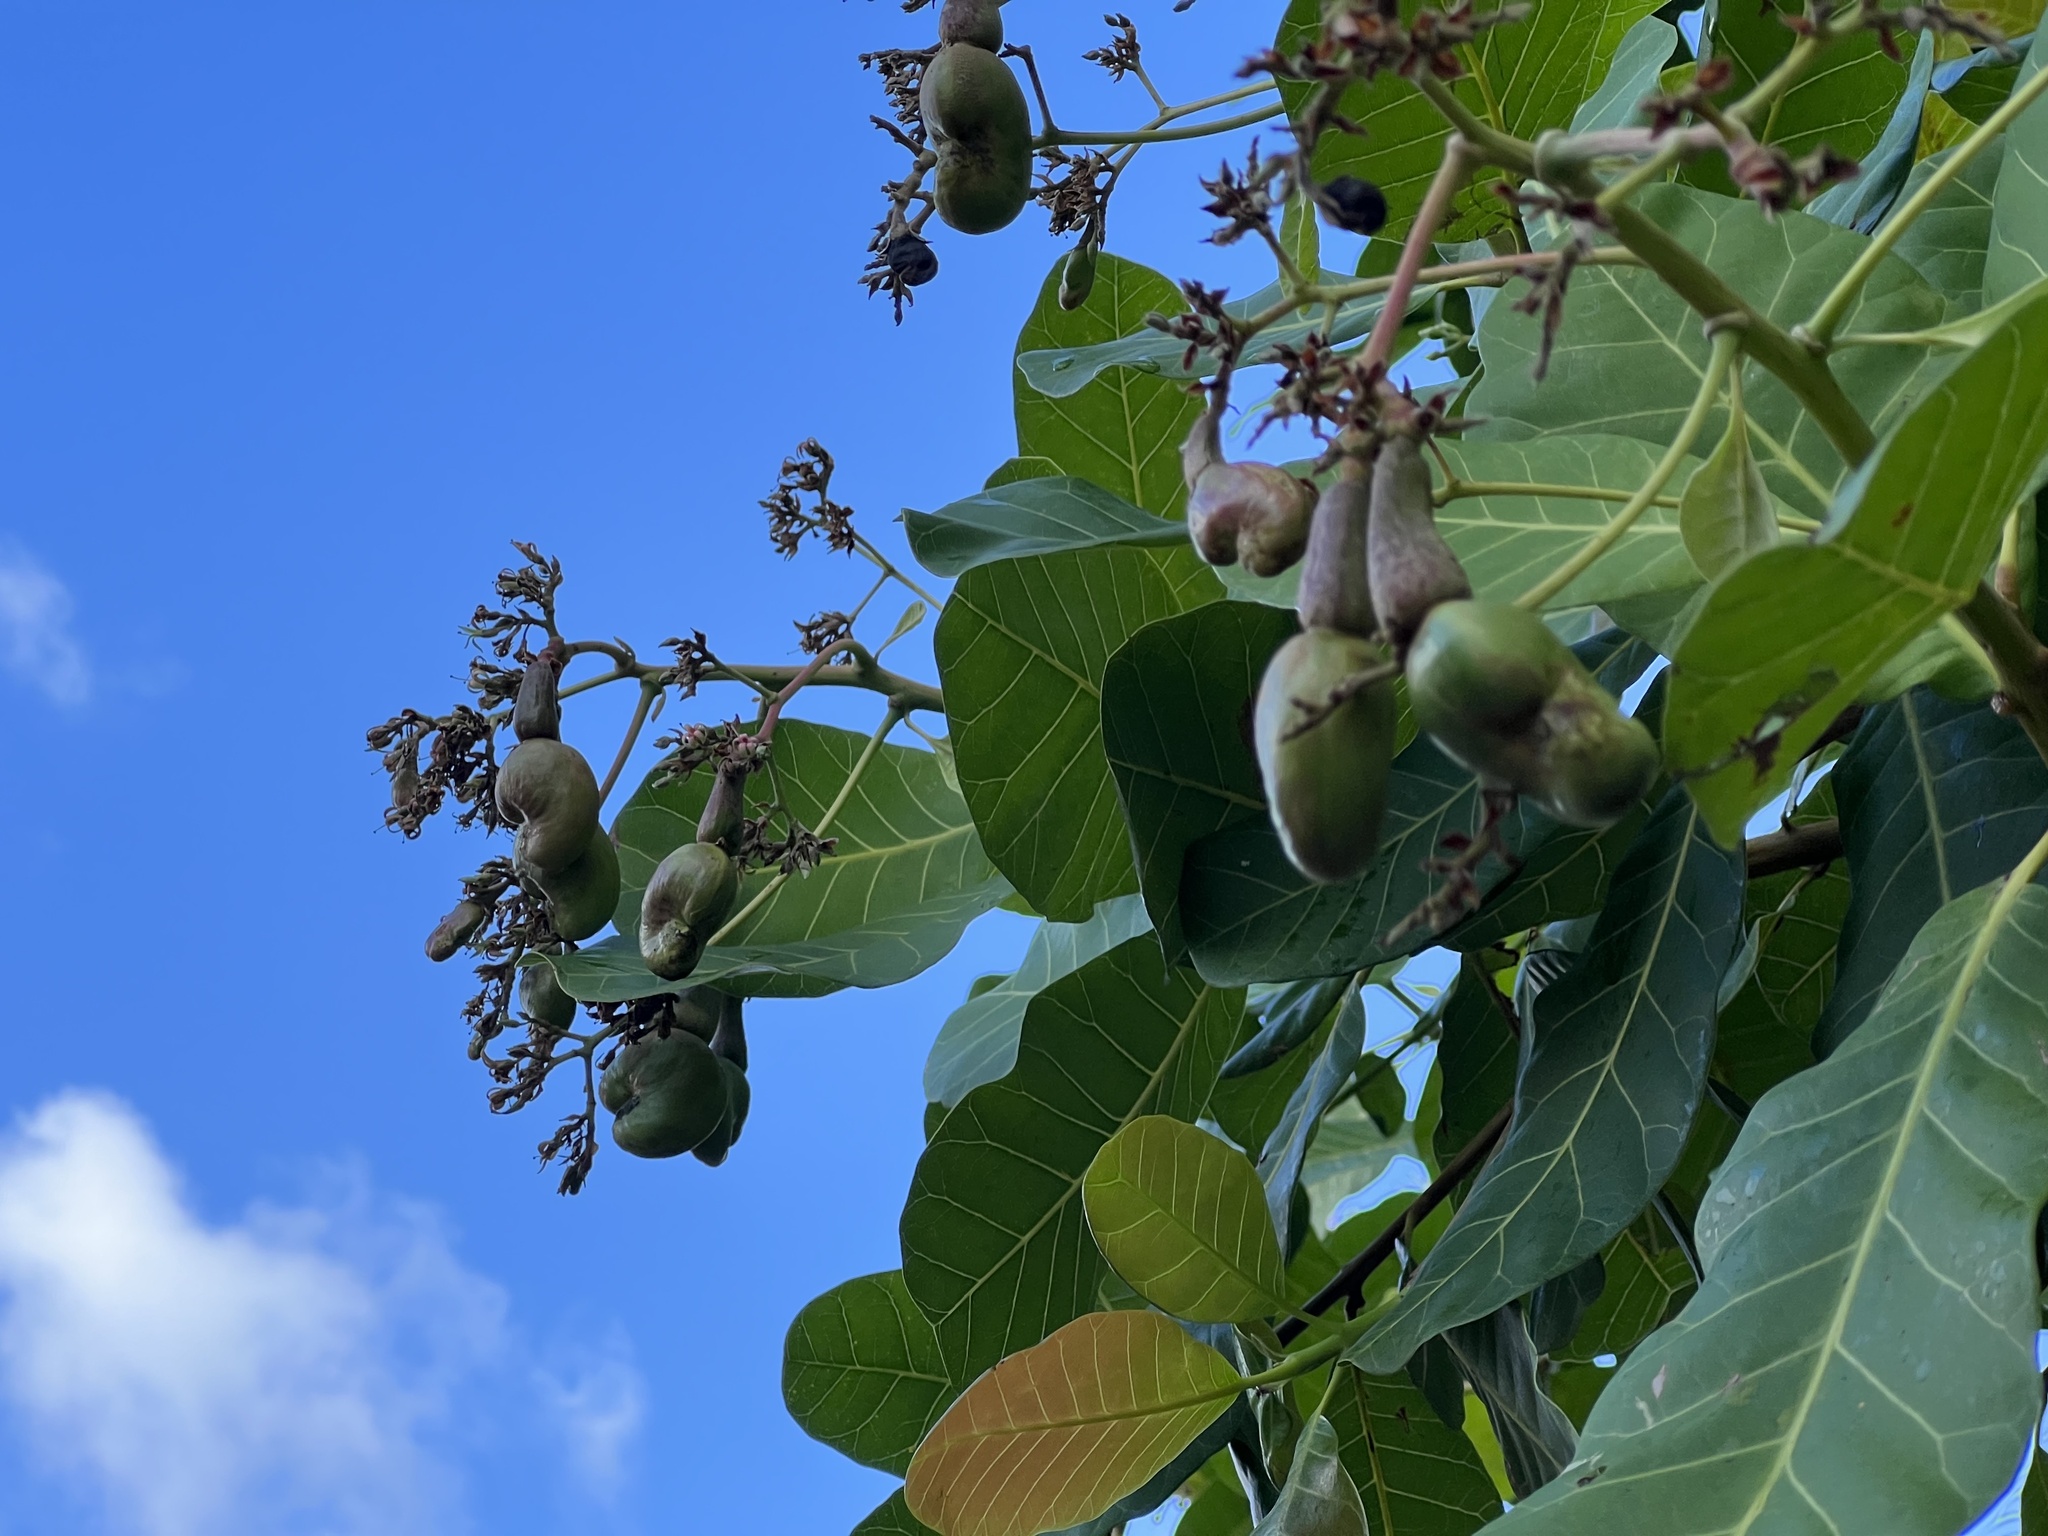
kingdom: Plantae
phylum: Tracheophyta
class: Magnoliopsida
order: Sapindales
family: Anacardiaceae
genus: Anacardium
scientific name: Anacardium occidentale
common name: Cashew
